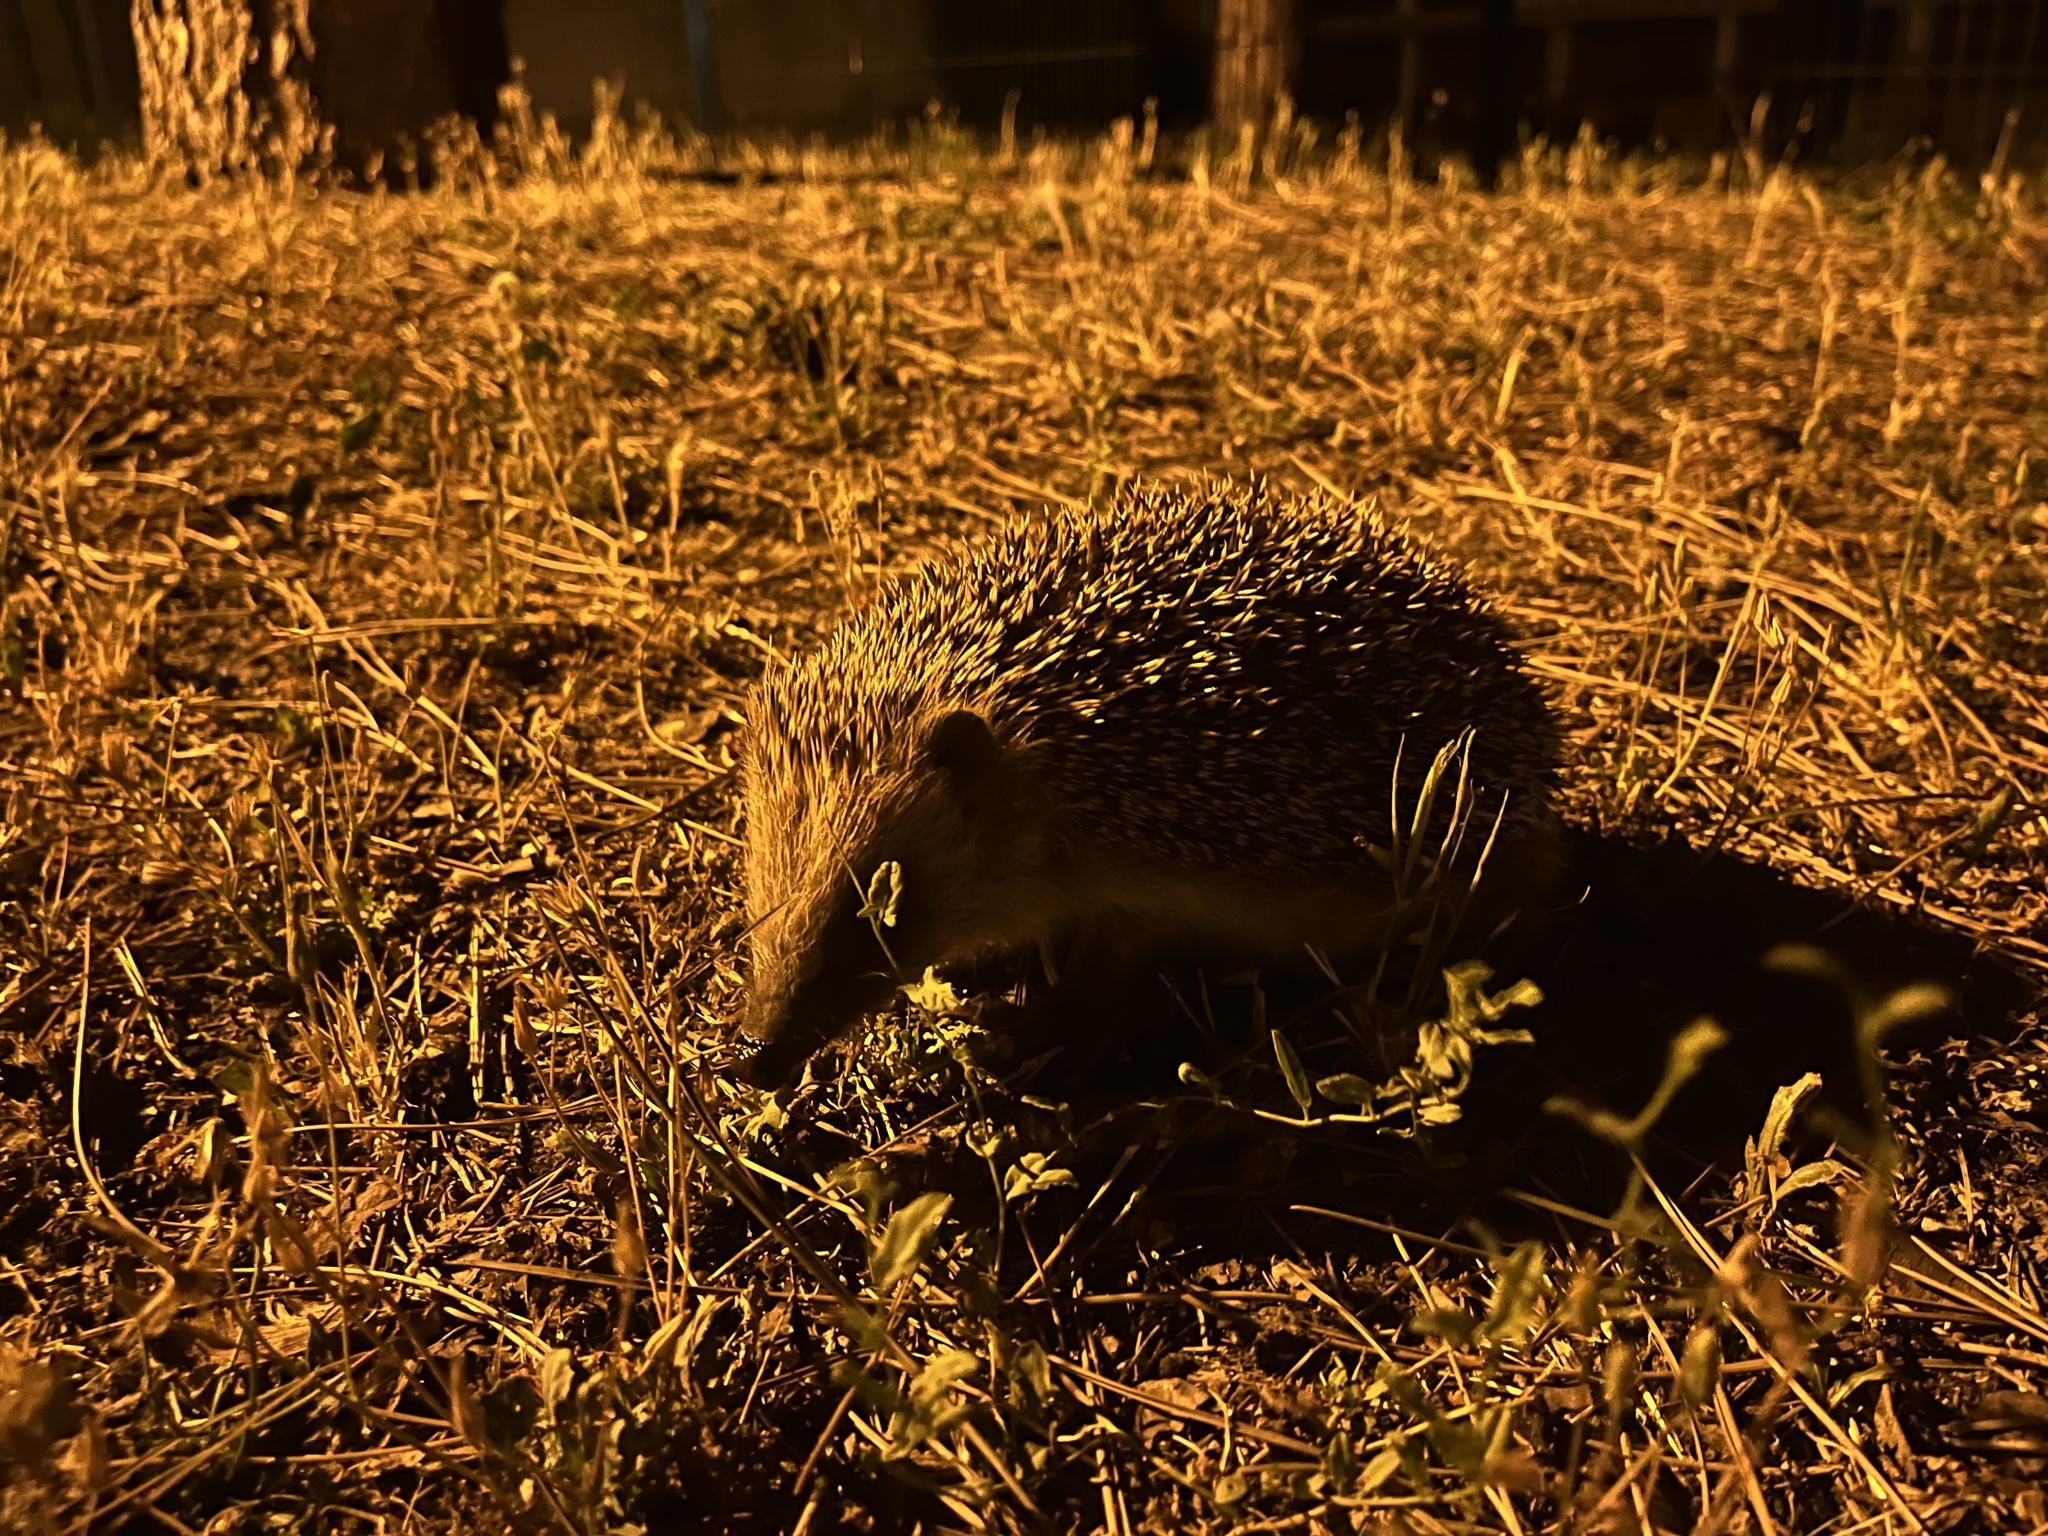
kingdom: Animalia
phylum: Chordata
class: Mammalia
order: Erinaceomorpha
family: Erinaceidae
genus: Erinaceus
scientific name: Erinaceus europaeus
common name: West european hedgehog
